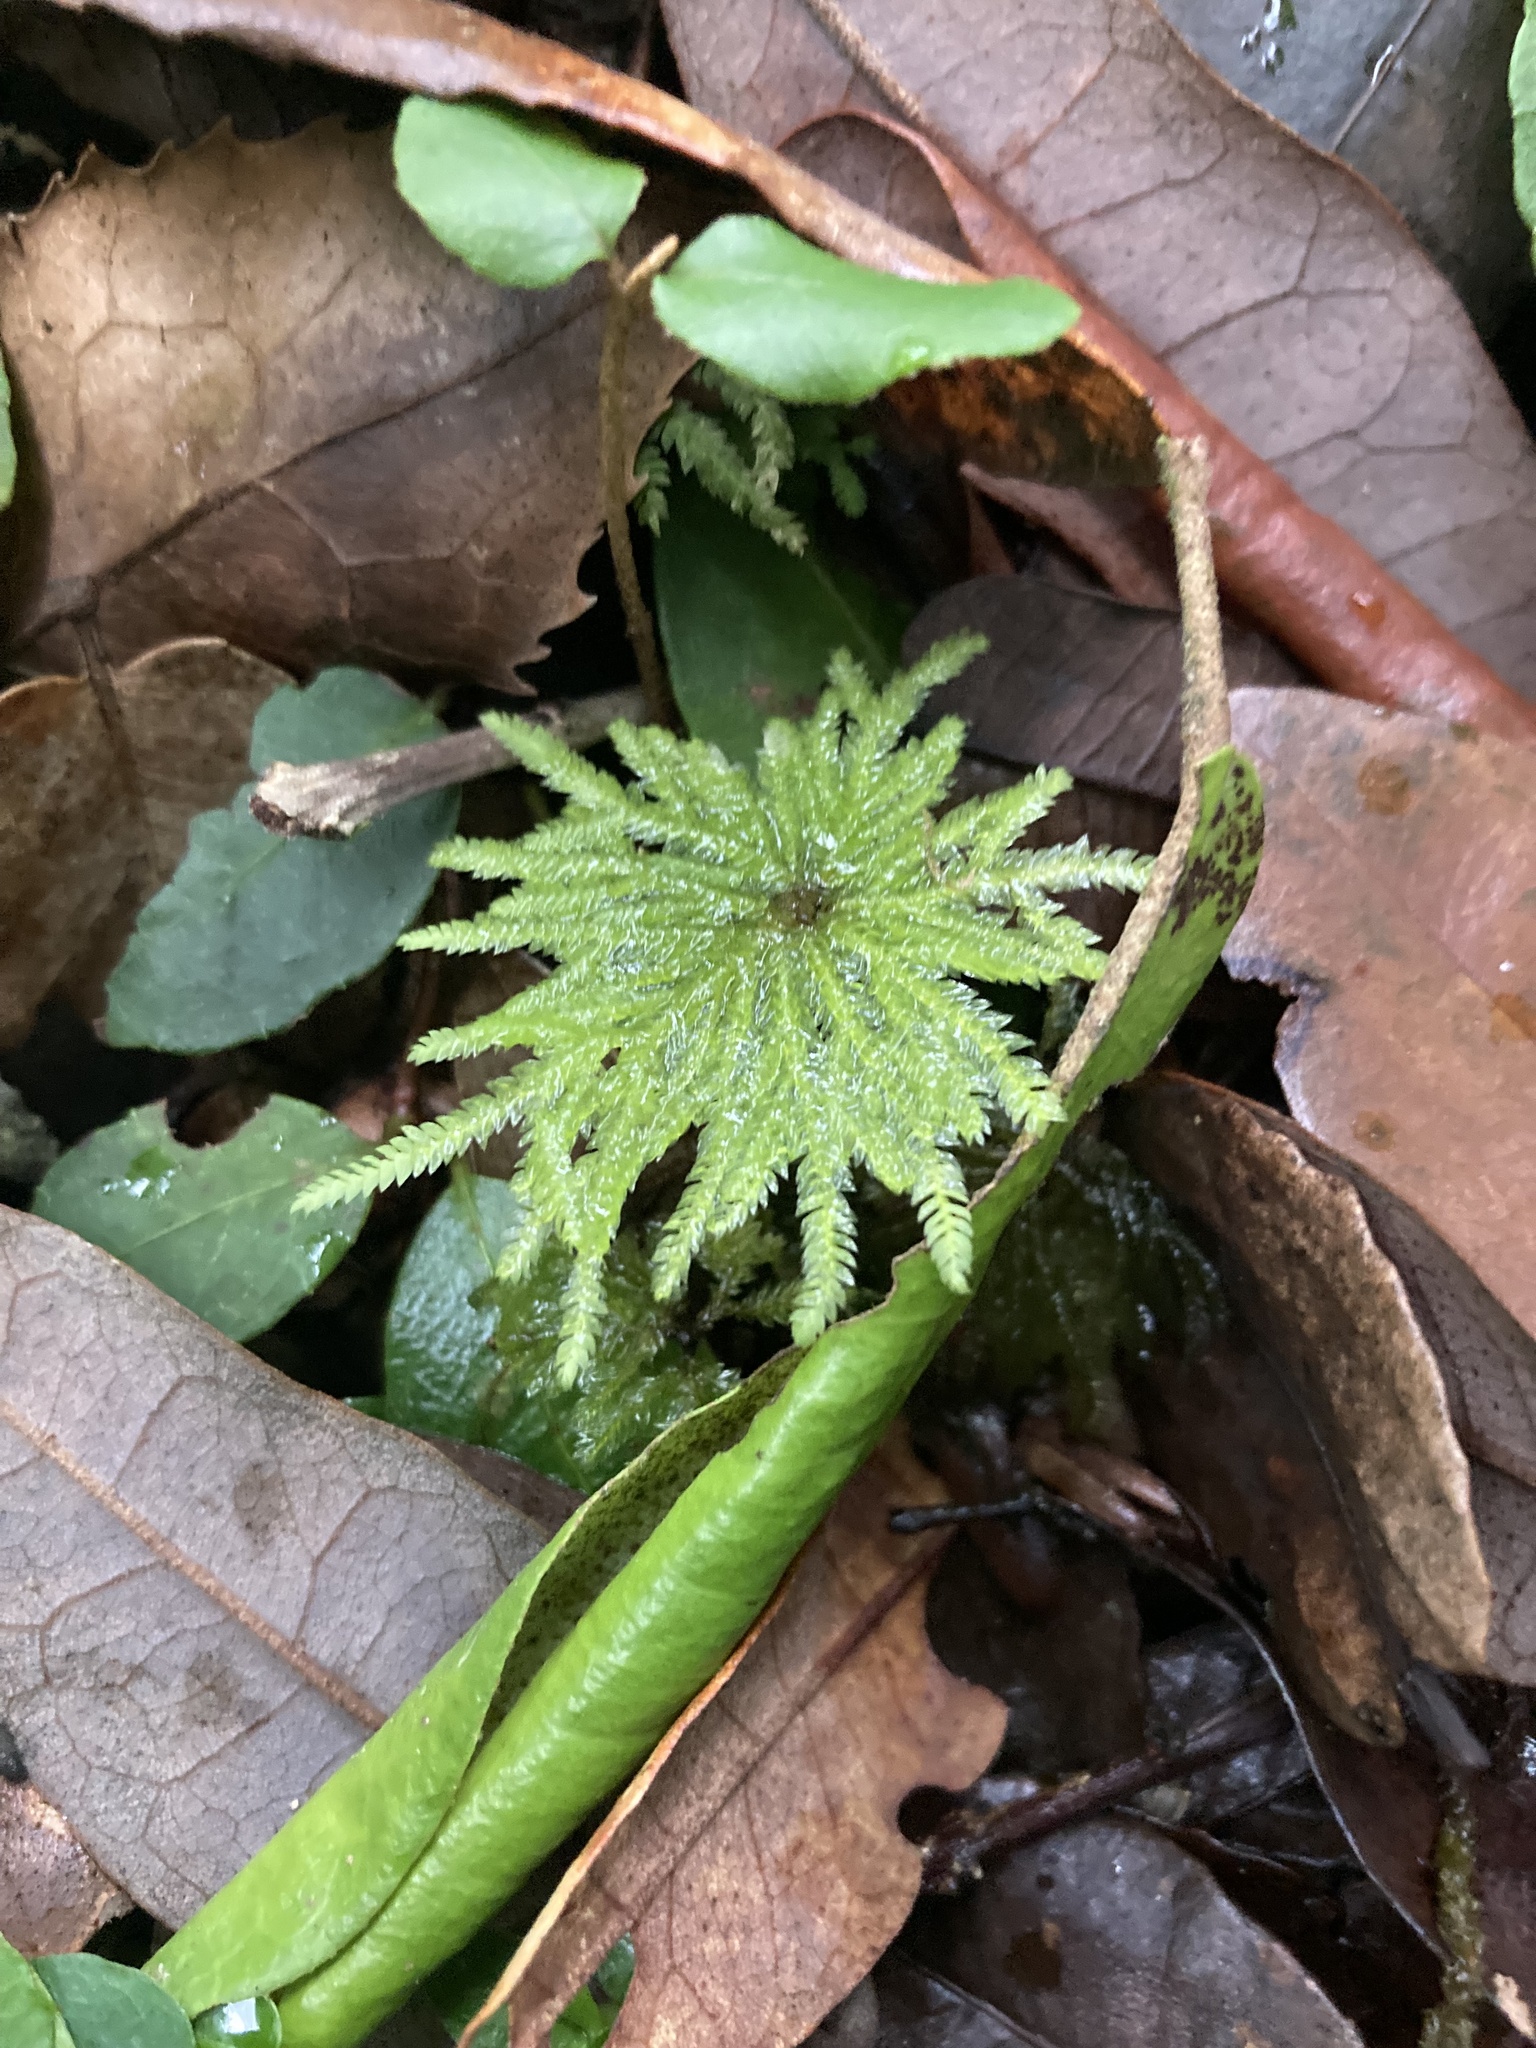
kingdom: Plantae
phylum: Bryophyta
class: Bryopsida
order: Hypopterygiales
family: Hypopterygiaceae
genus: Arbusculohypopterygium
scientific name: Arbusculohypopterygium arbuscula
